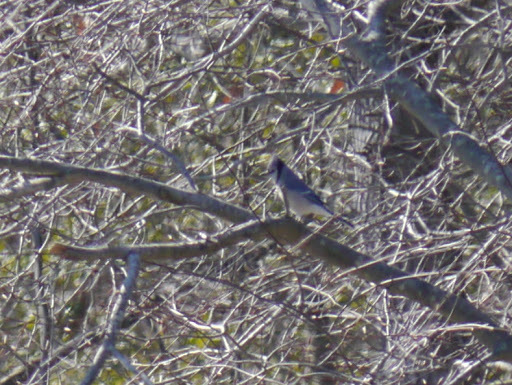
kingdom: Animalia
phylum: Chordata
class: Aves
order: Passeriformes
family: Corvidae
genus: Cyanocitta
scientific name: Cyanocitta cristata
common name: Blue jay
